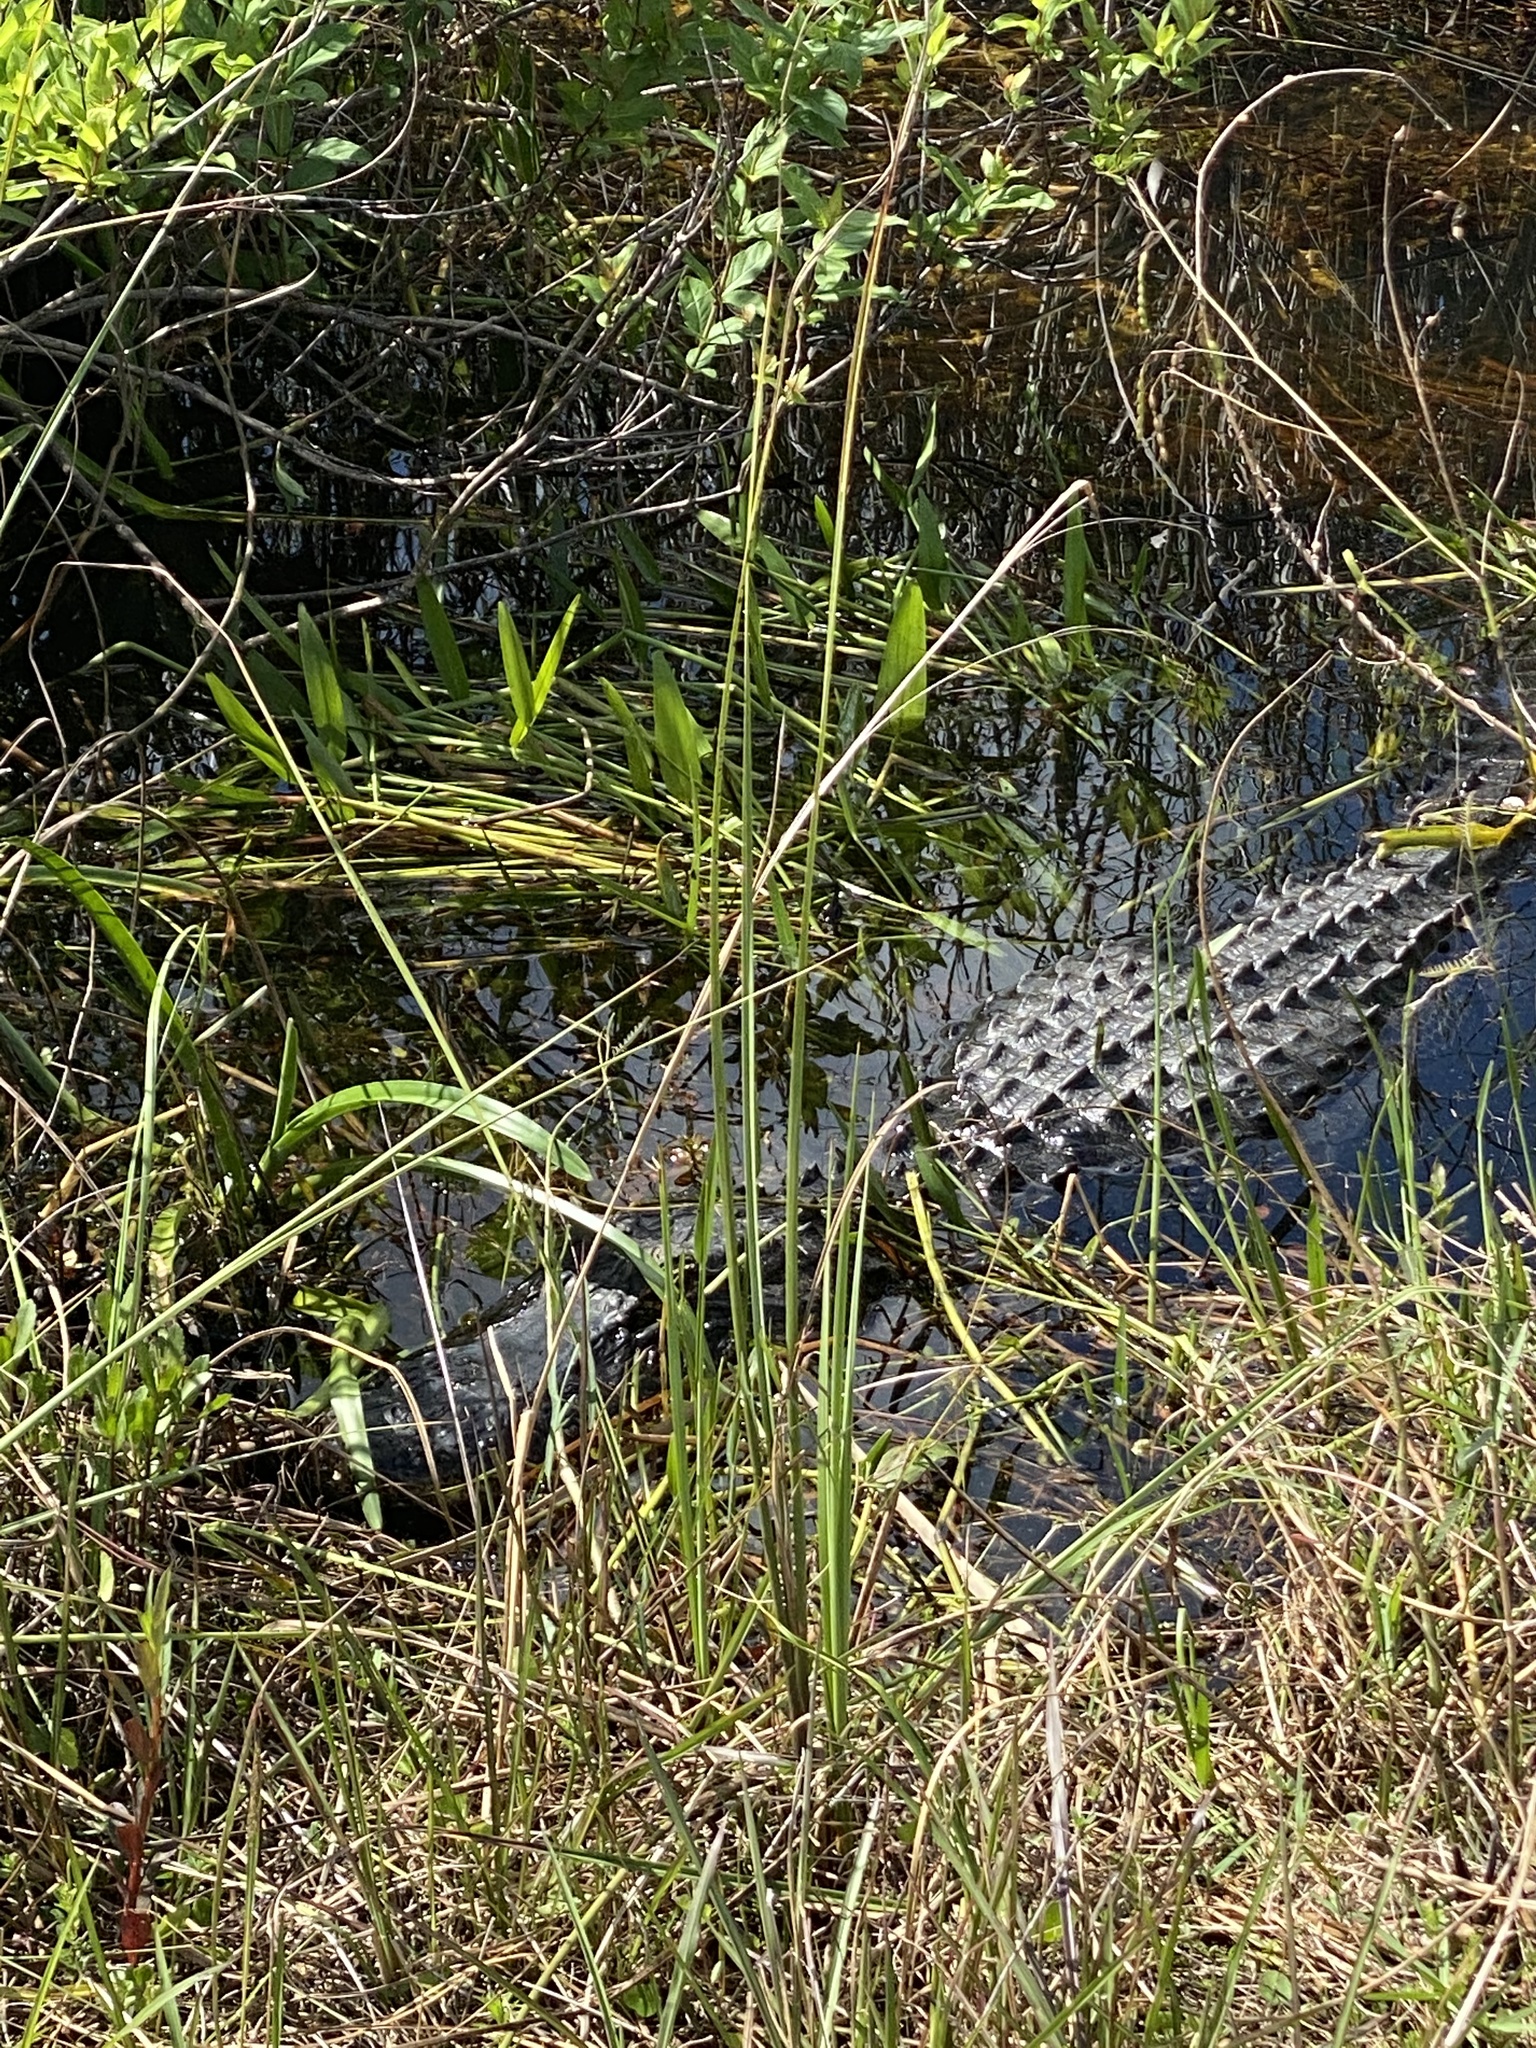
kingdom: Animalia
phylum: Chordata
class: Crocodylia
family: Alligatoridae
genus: Alligator
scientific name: Alligator mississippiensis
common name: American alligator
